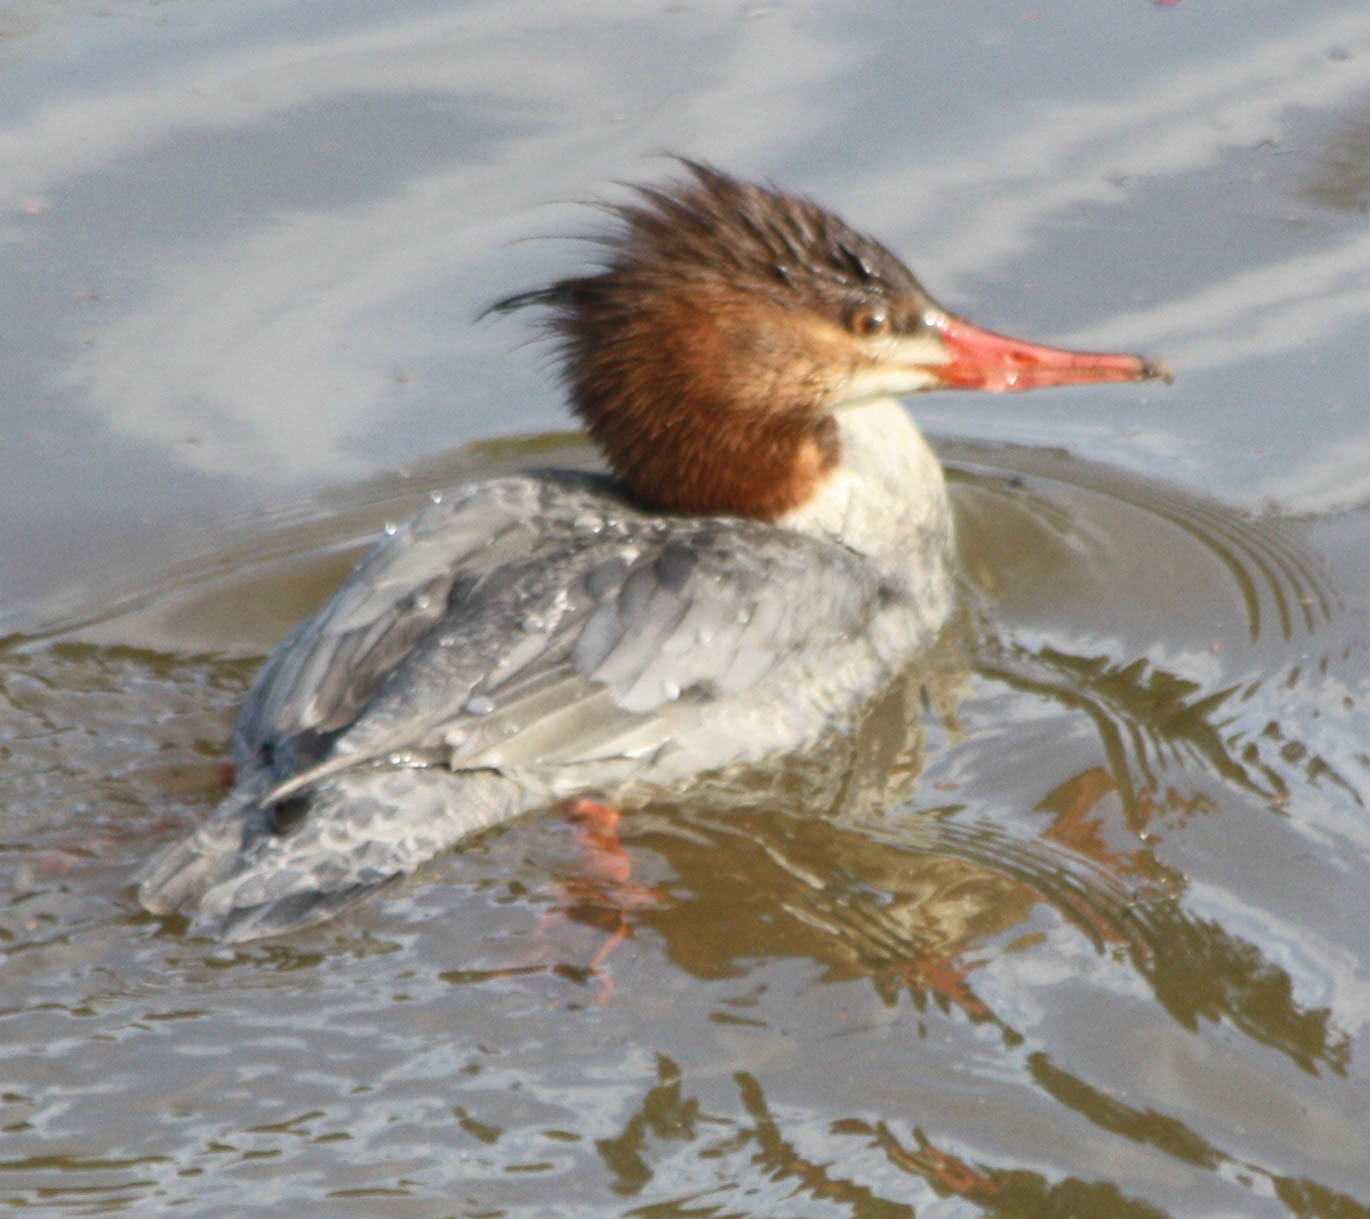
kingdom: Animalia
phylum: Chordata
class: Aves
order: Anseriformes
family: Anatidae
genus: Mergus
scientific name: Mergus serrator
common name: Red-breasted merganser
